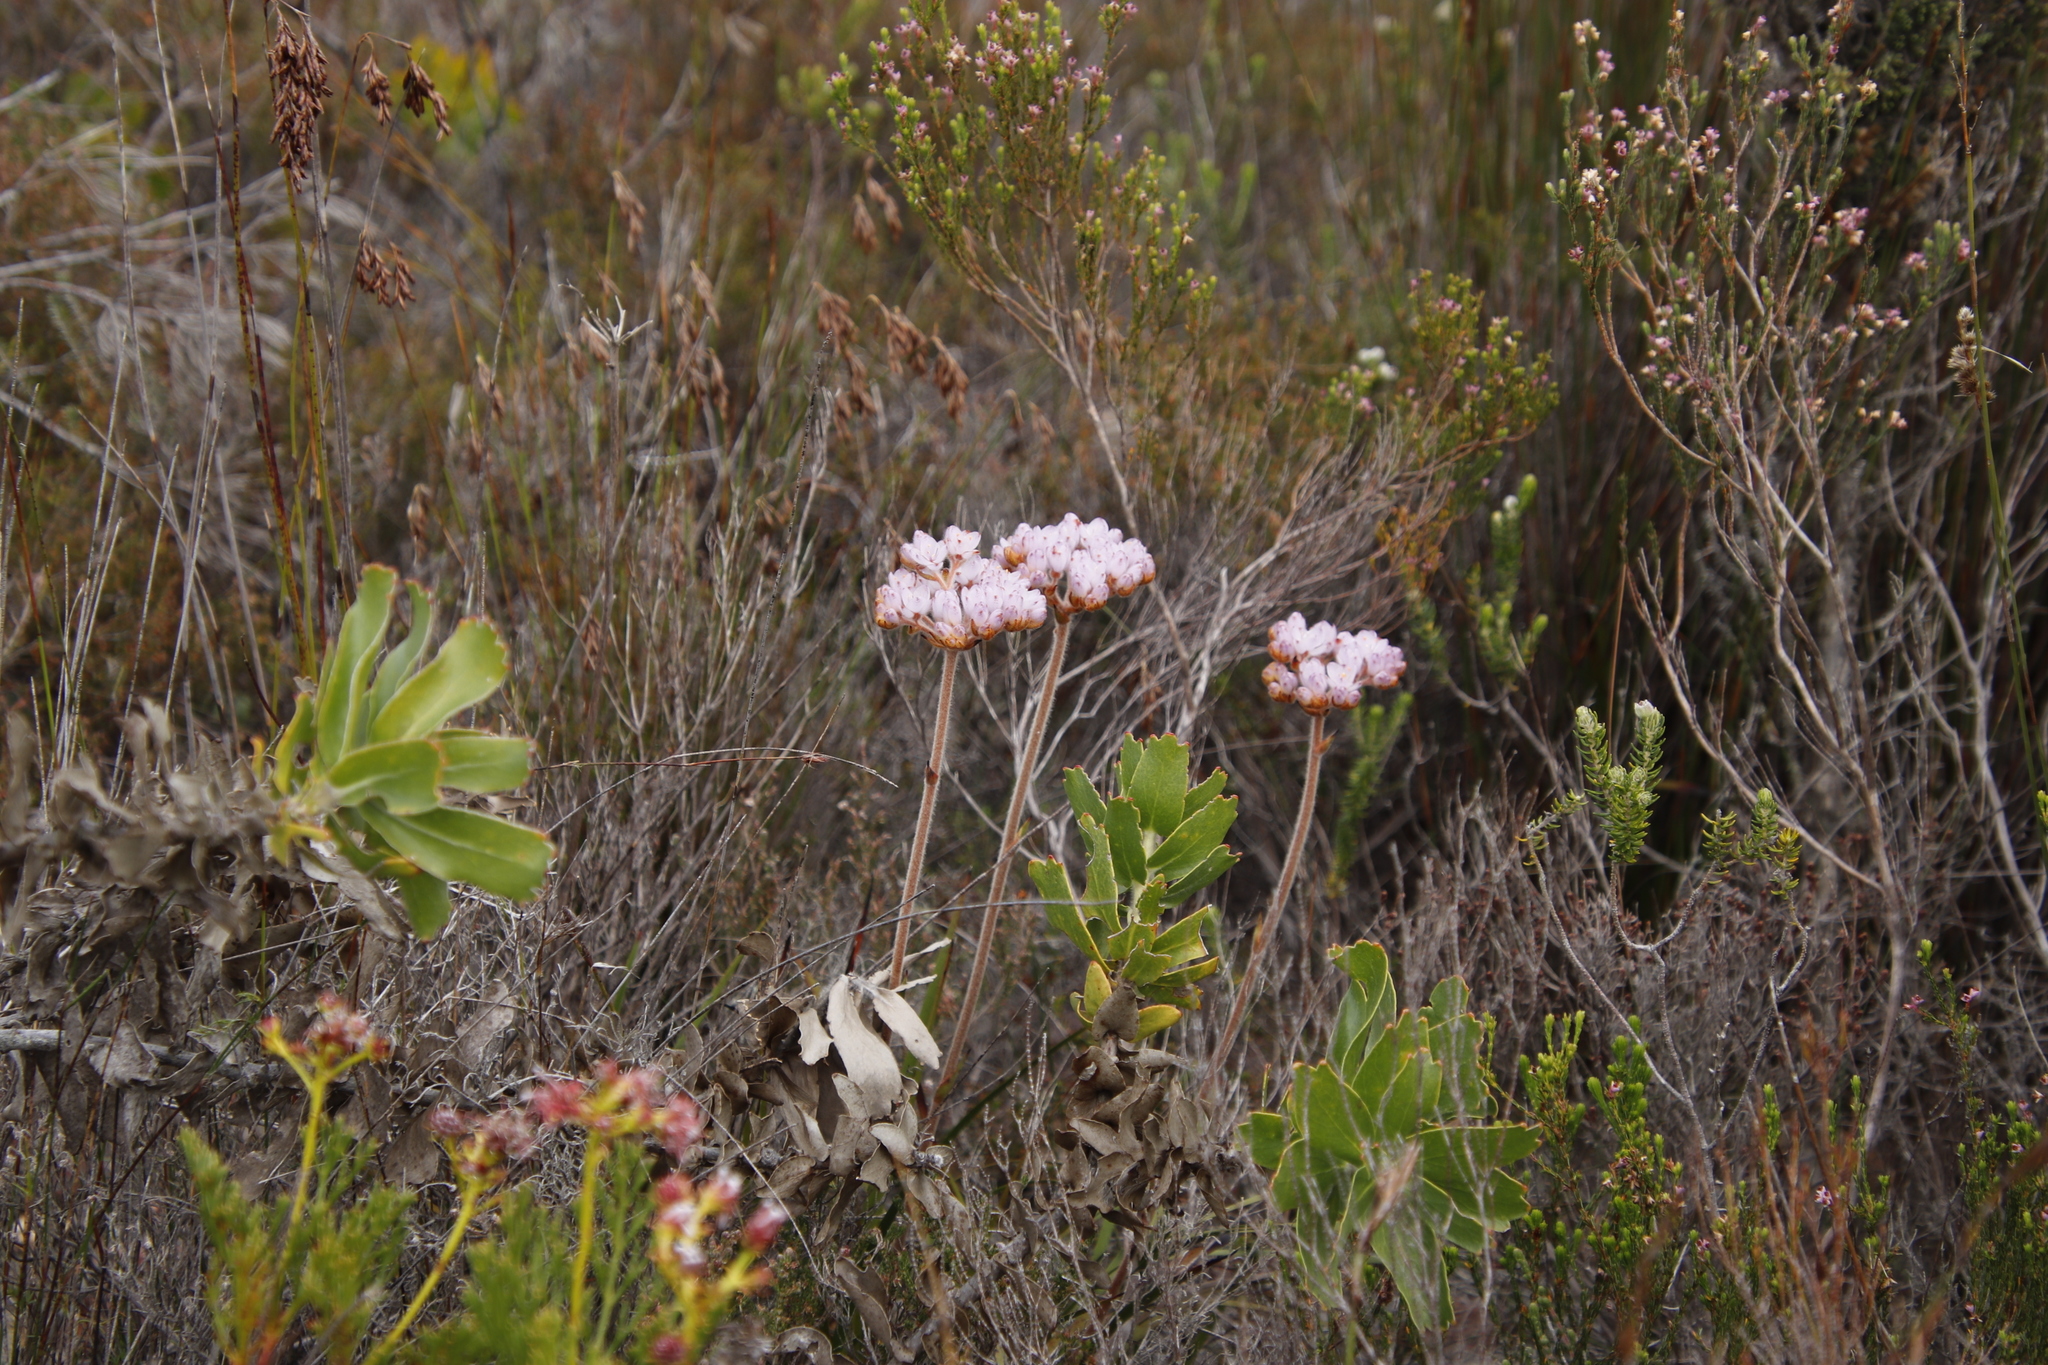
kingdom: Plantae
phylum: Tracheophyta
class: Liliopsida
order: Commelinales
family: Haemodoraceae
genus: Dilatris
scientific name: Dilatris pillansii
